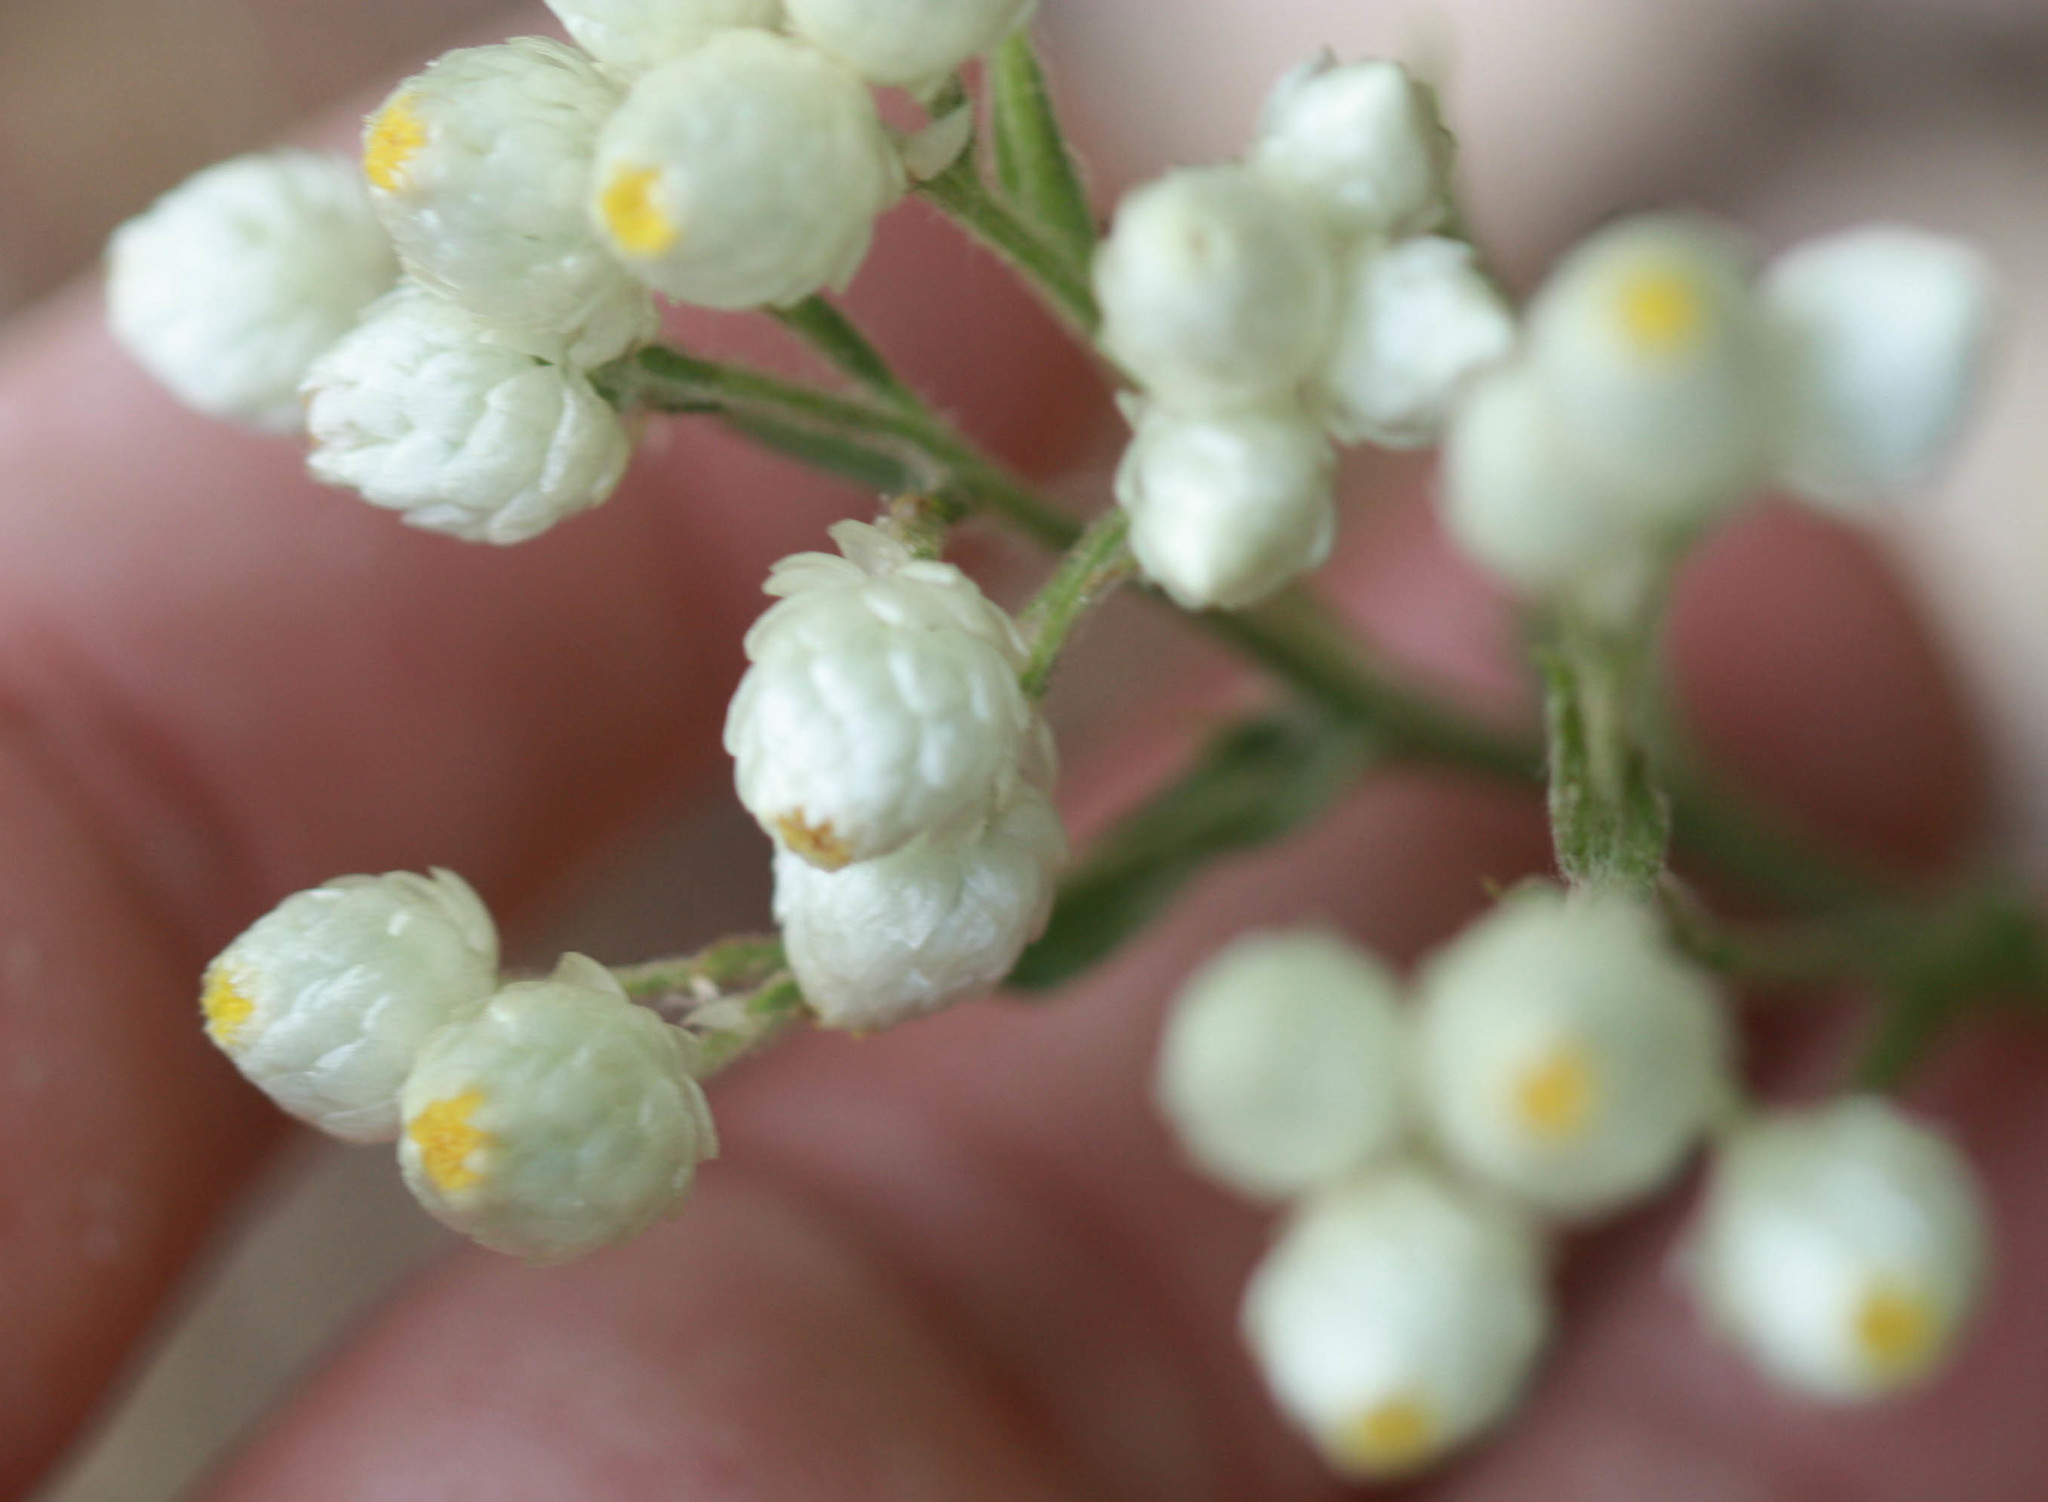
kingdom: Plantae
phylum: Tracheophyta
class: Magnoliopsida
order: Asterales
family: Asteraceae
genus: Pseudognaphalium
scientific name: Pseudognaphalium californicum
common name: California rabbit-tobacco
